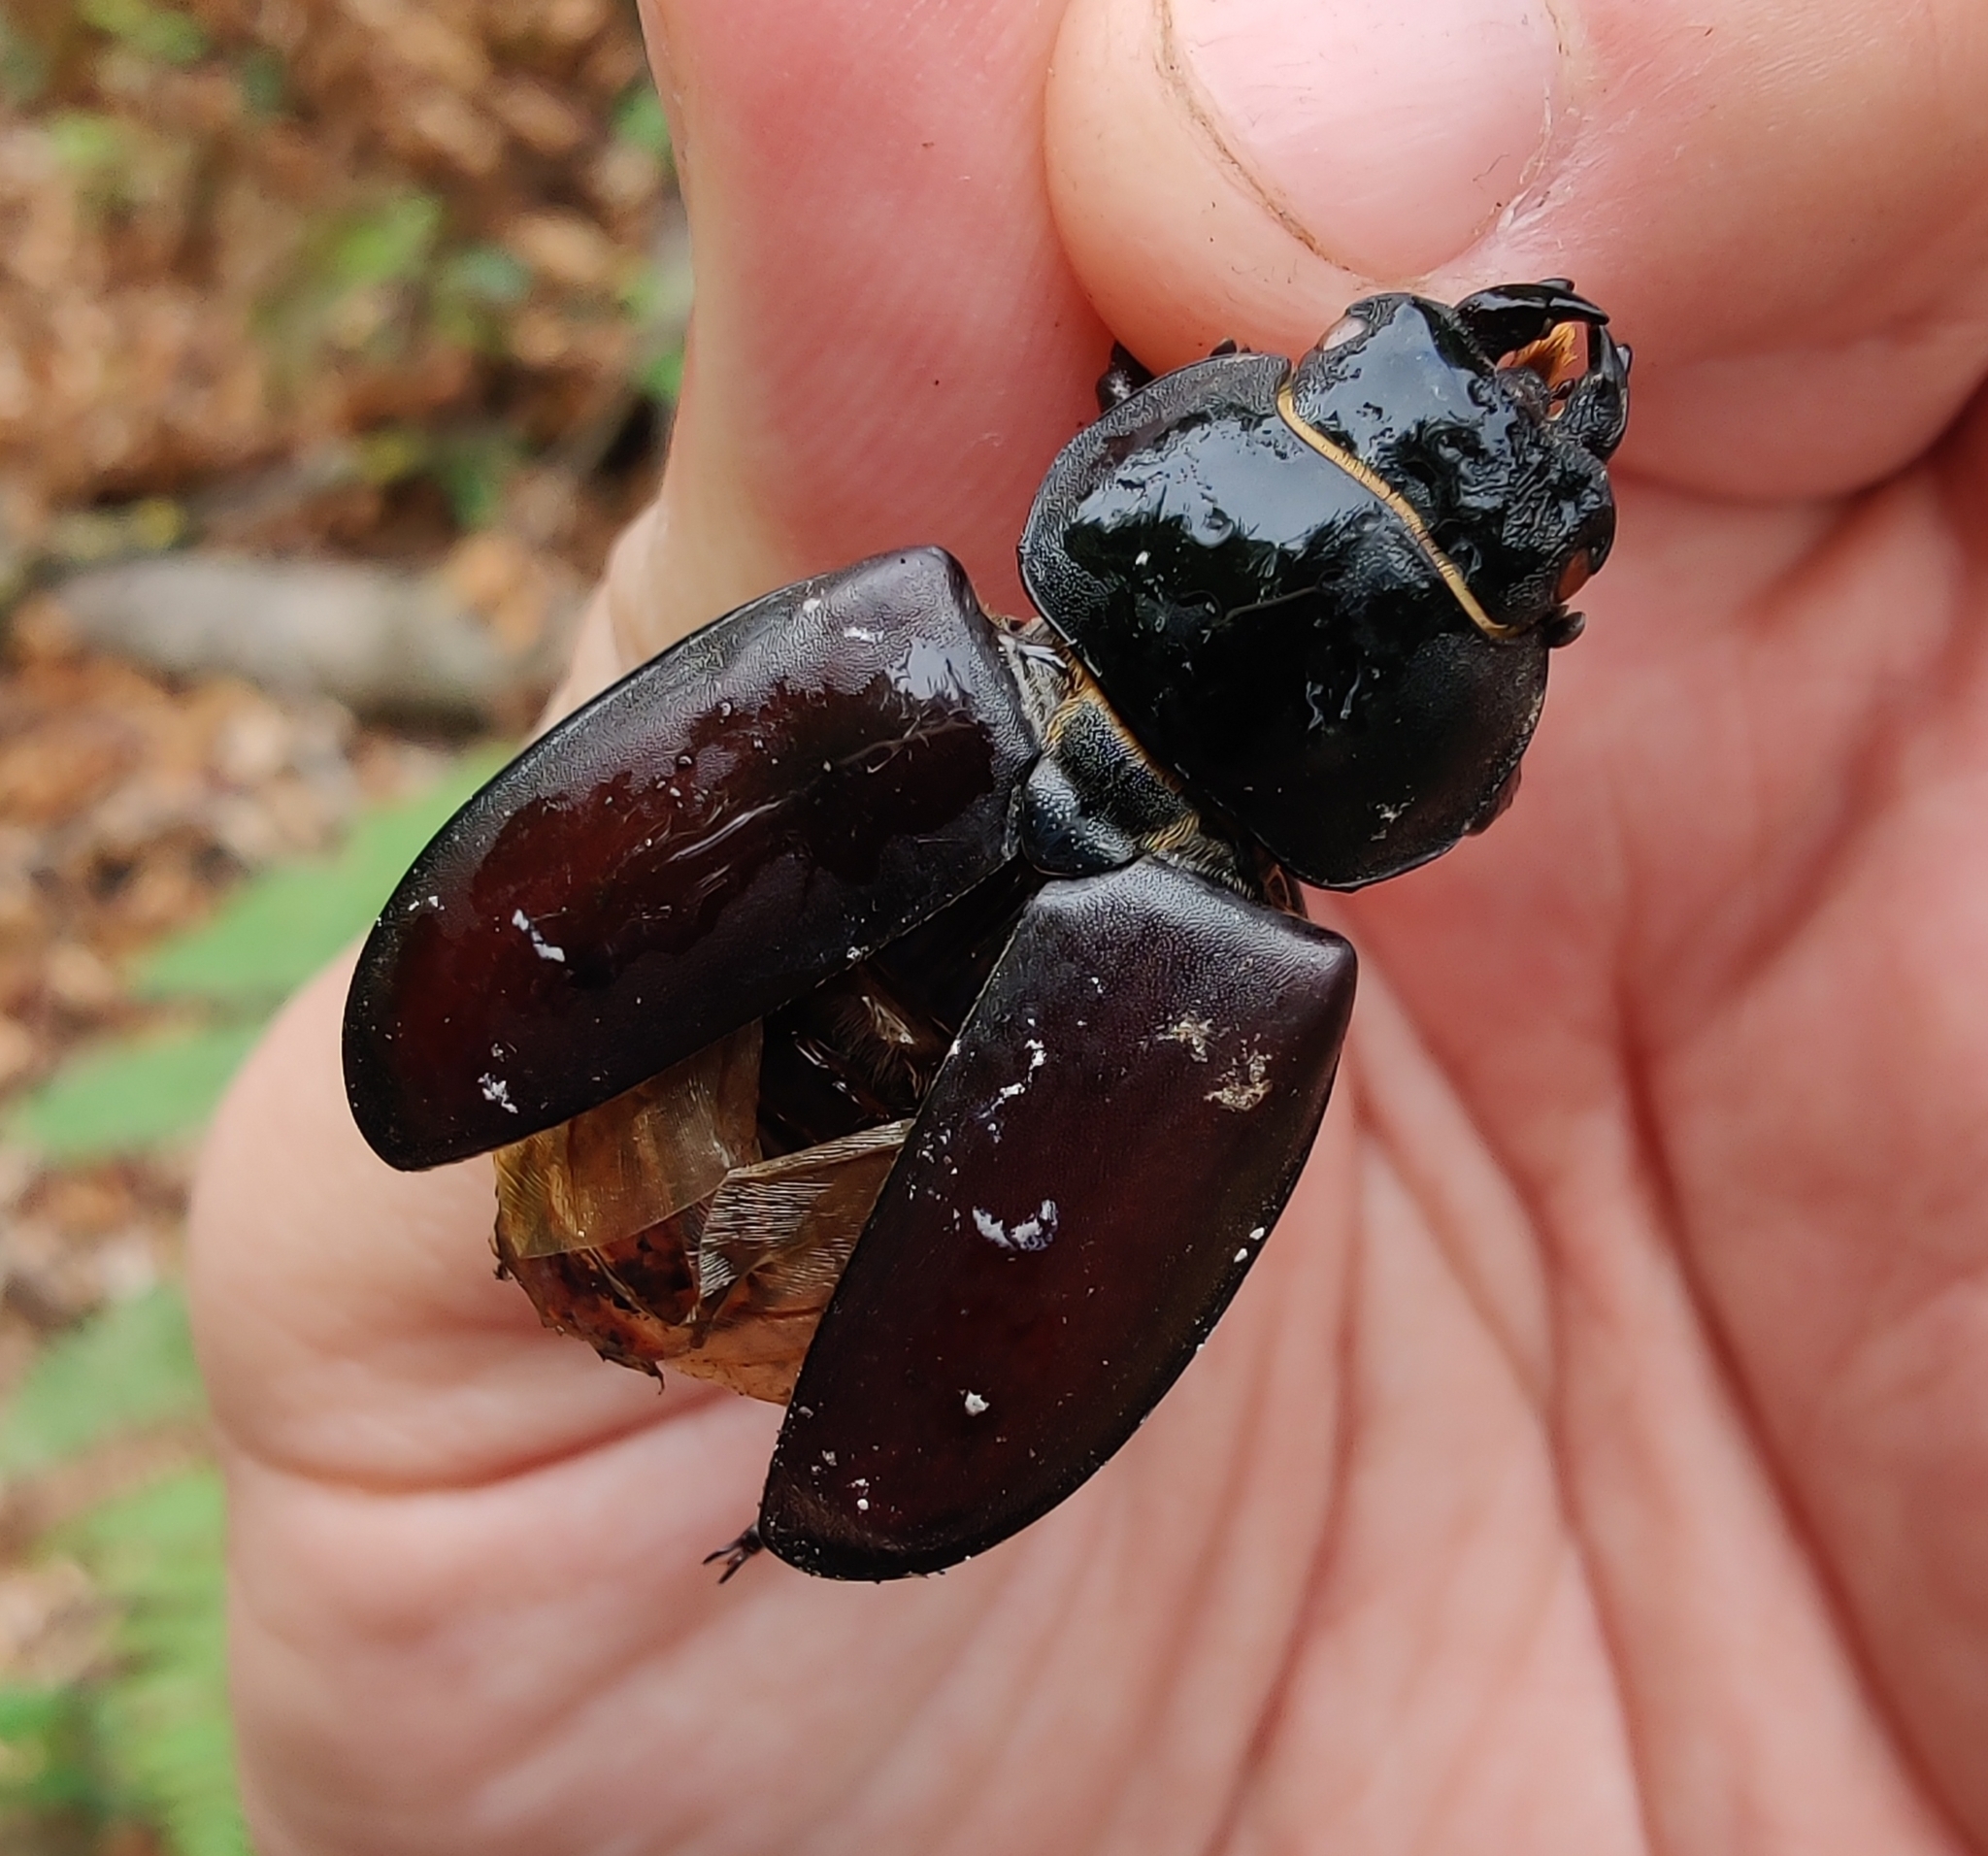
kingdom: Animalia
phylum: Arthropoda
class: Insecta
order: Coleoptera
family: Lucanidae
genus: Lucanus
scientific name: Lucanus cervus
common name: Stag beetle
